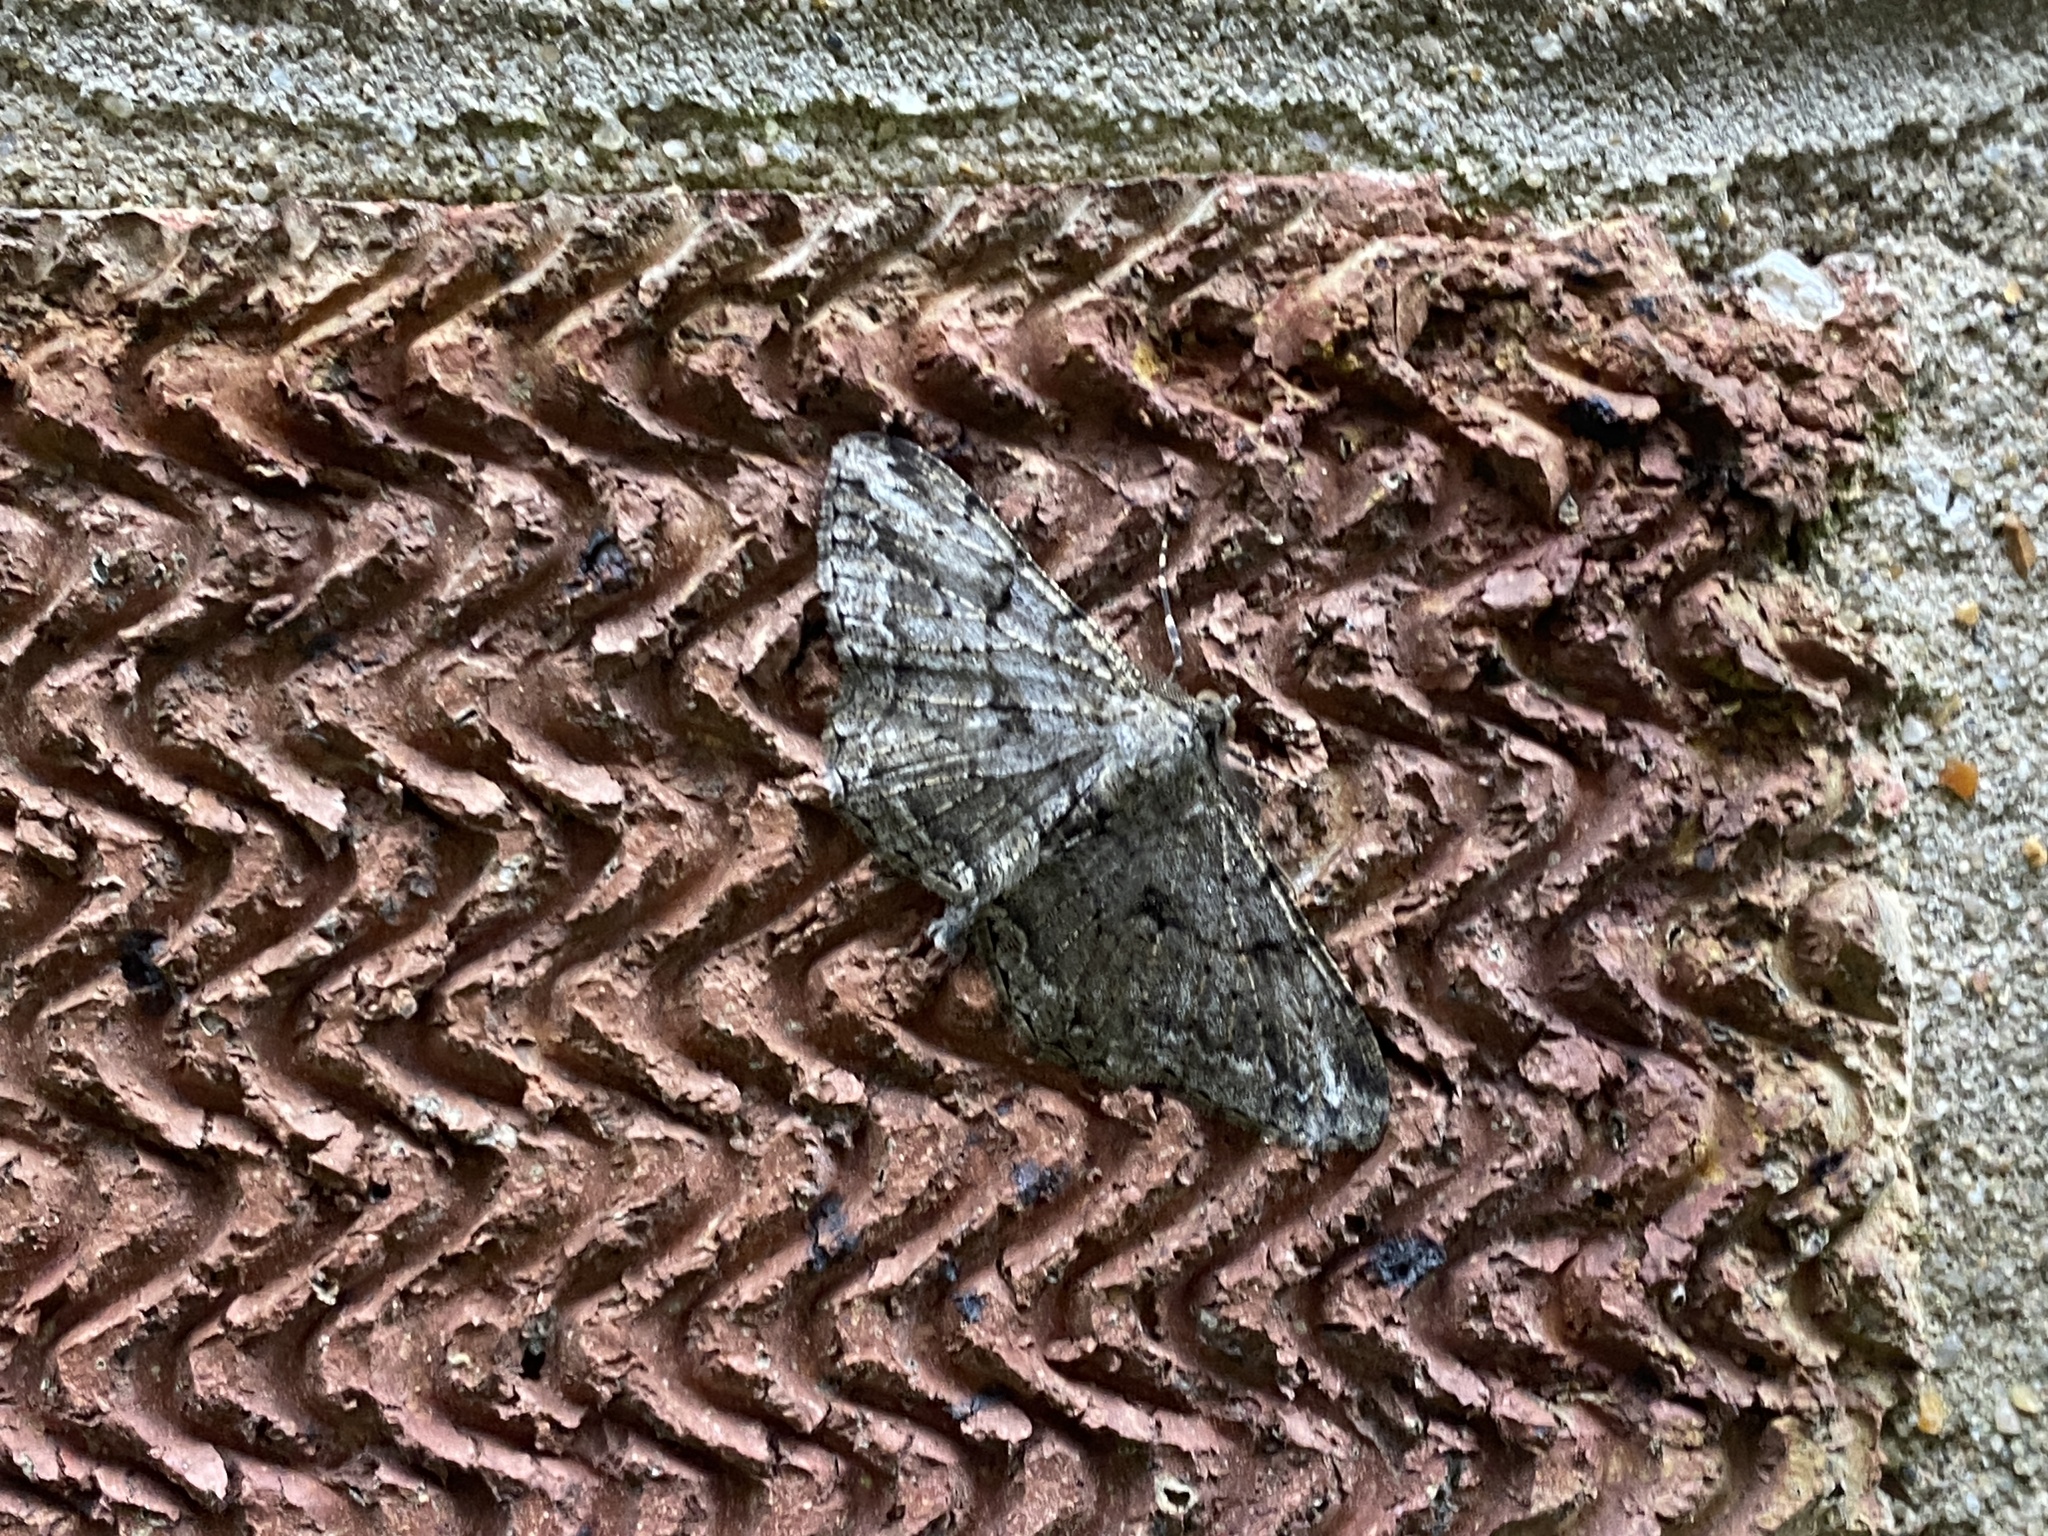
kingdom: Animalia
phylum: Arthropoda
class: Insecta
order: Lepidoptera
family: Geometridae
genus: Peribatodes
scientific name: Peribatodes rhomboidaria
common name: Willow beauty
